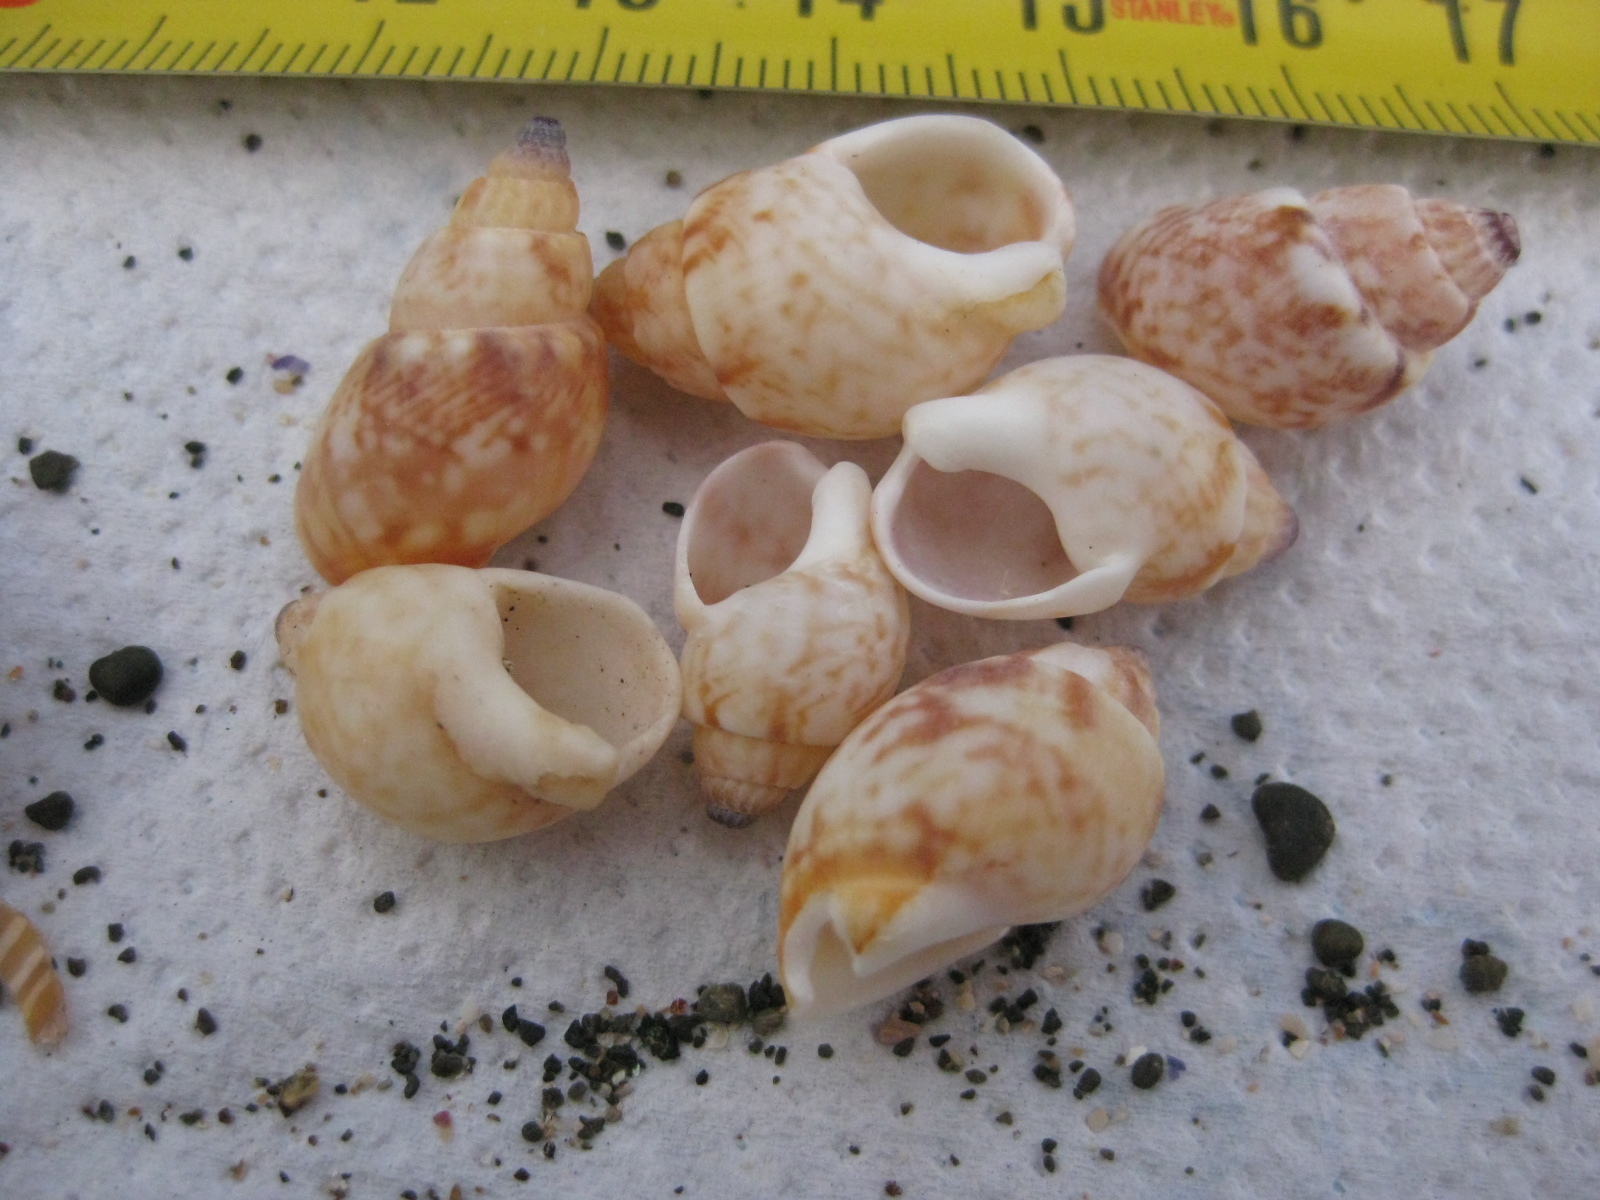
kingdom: Animalia
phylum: Mollusca
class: Gastropoda
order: Neogastropoda
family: Nassariidae
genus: Nassarius
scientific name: Nassarius spiratus
